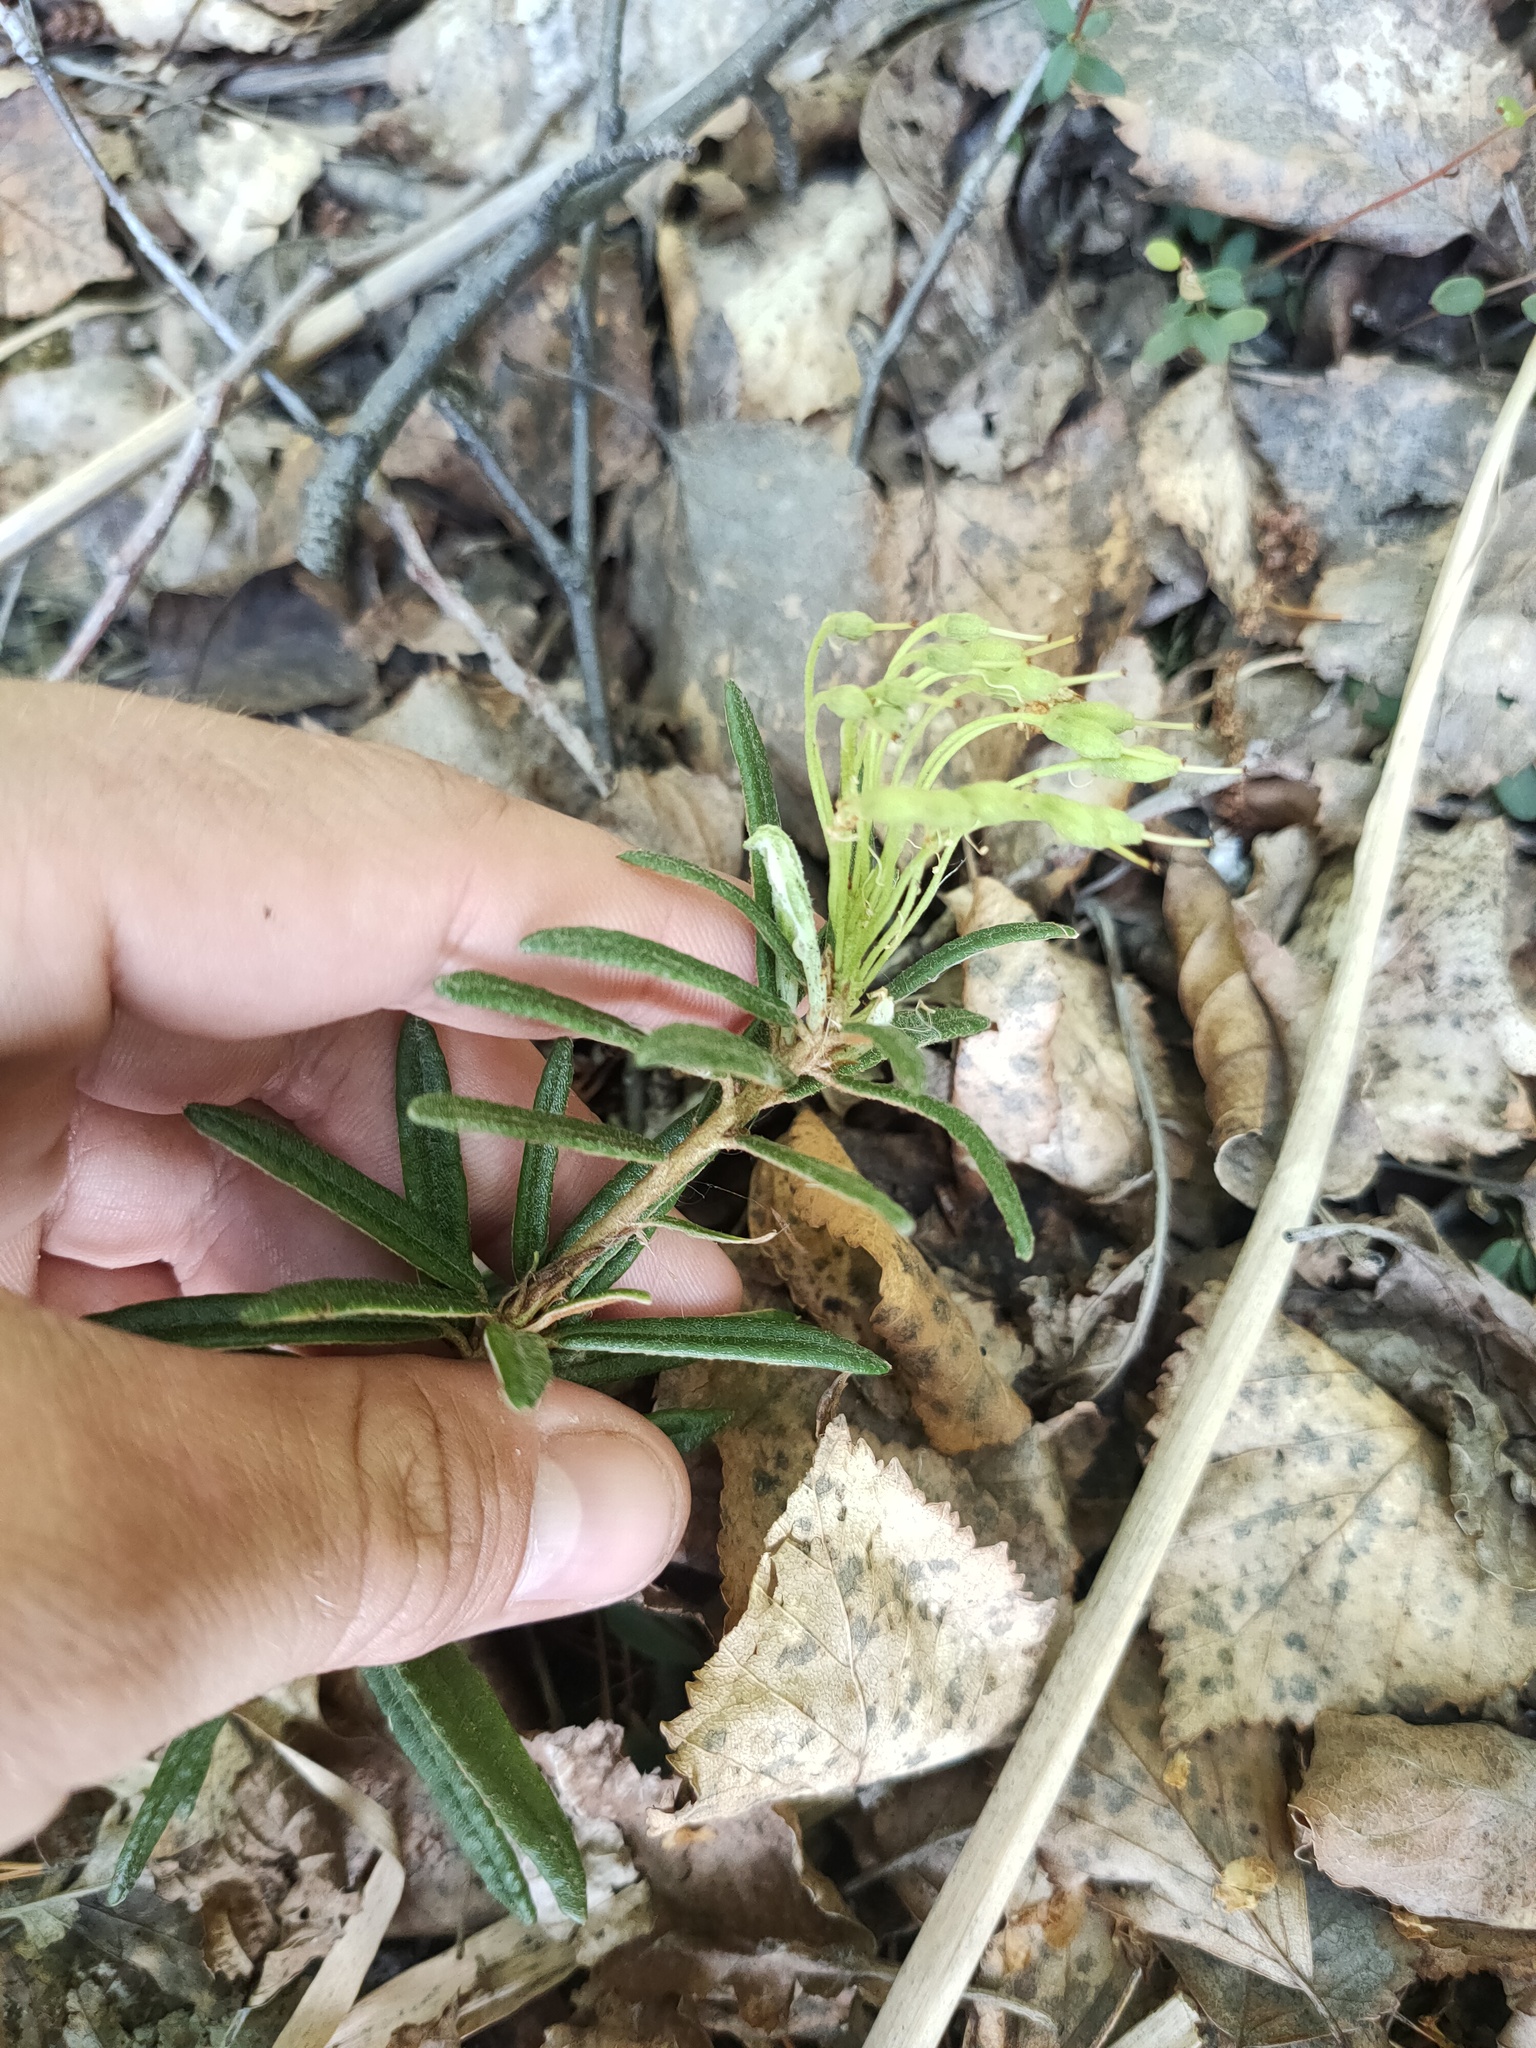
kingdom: Plantae
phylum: Tracheophyta
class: Magnoliopsida
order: Ericales
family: Ericaceae
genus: Rhododendron
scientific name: Rhododendron tomentosum
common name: Marsh labrador tea
